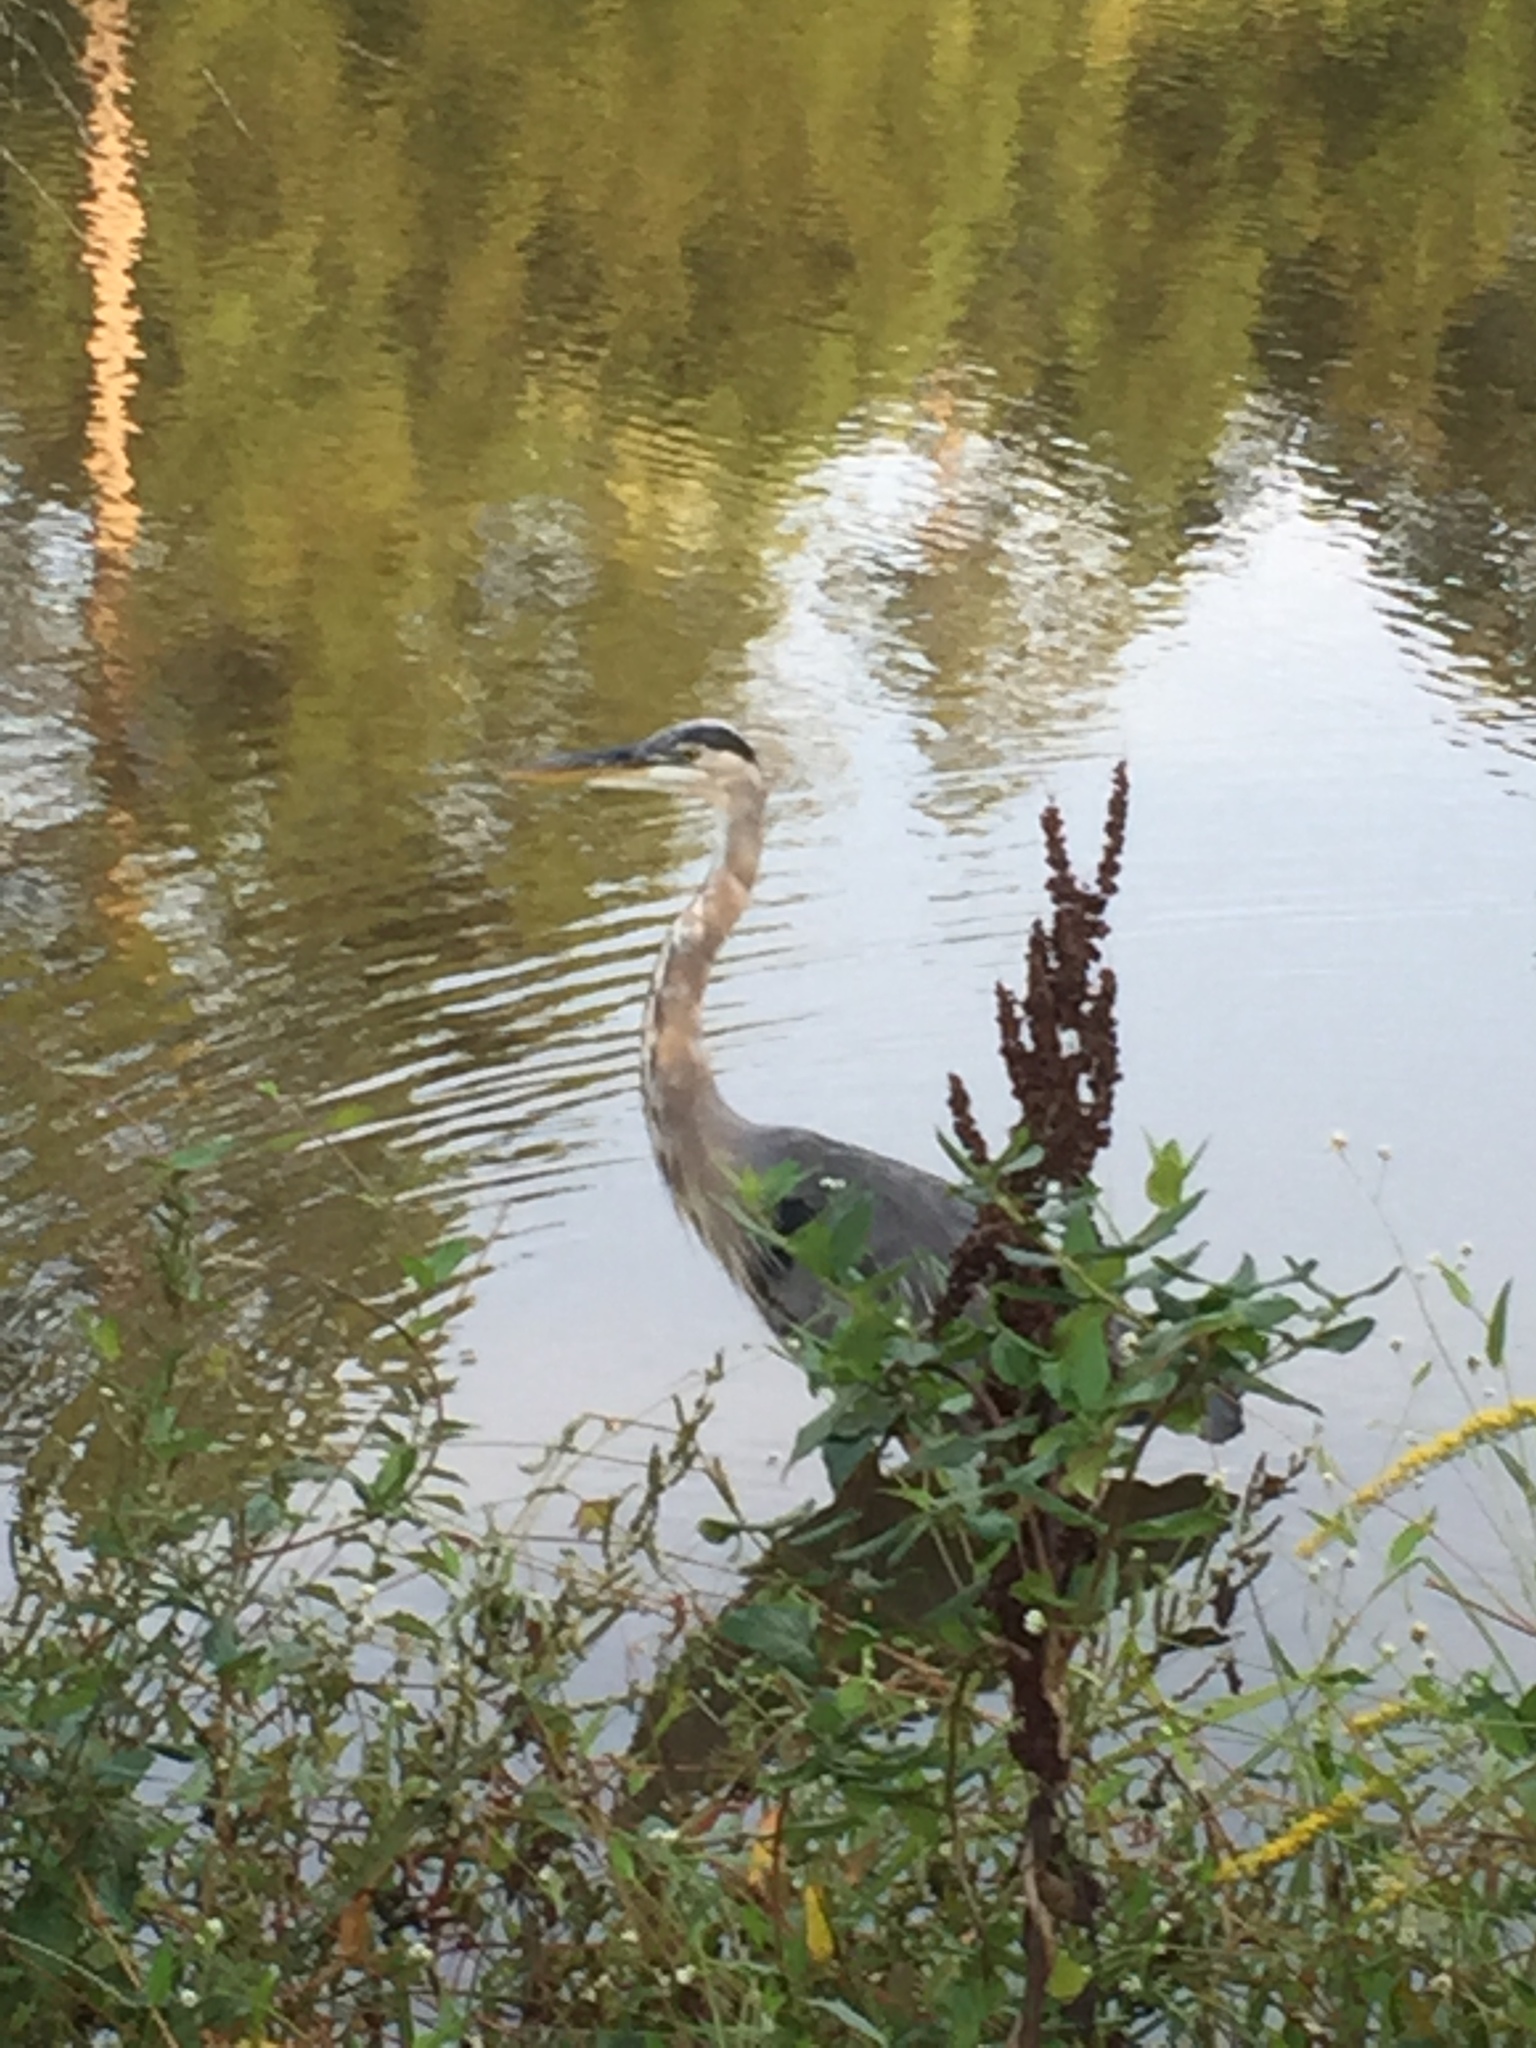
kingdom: Animalia
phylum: Chordata
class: Aves
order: Pelecaniformes
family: Ardeidae
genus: Ardea
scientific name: Ardea herodias
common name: Great blue heron
